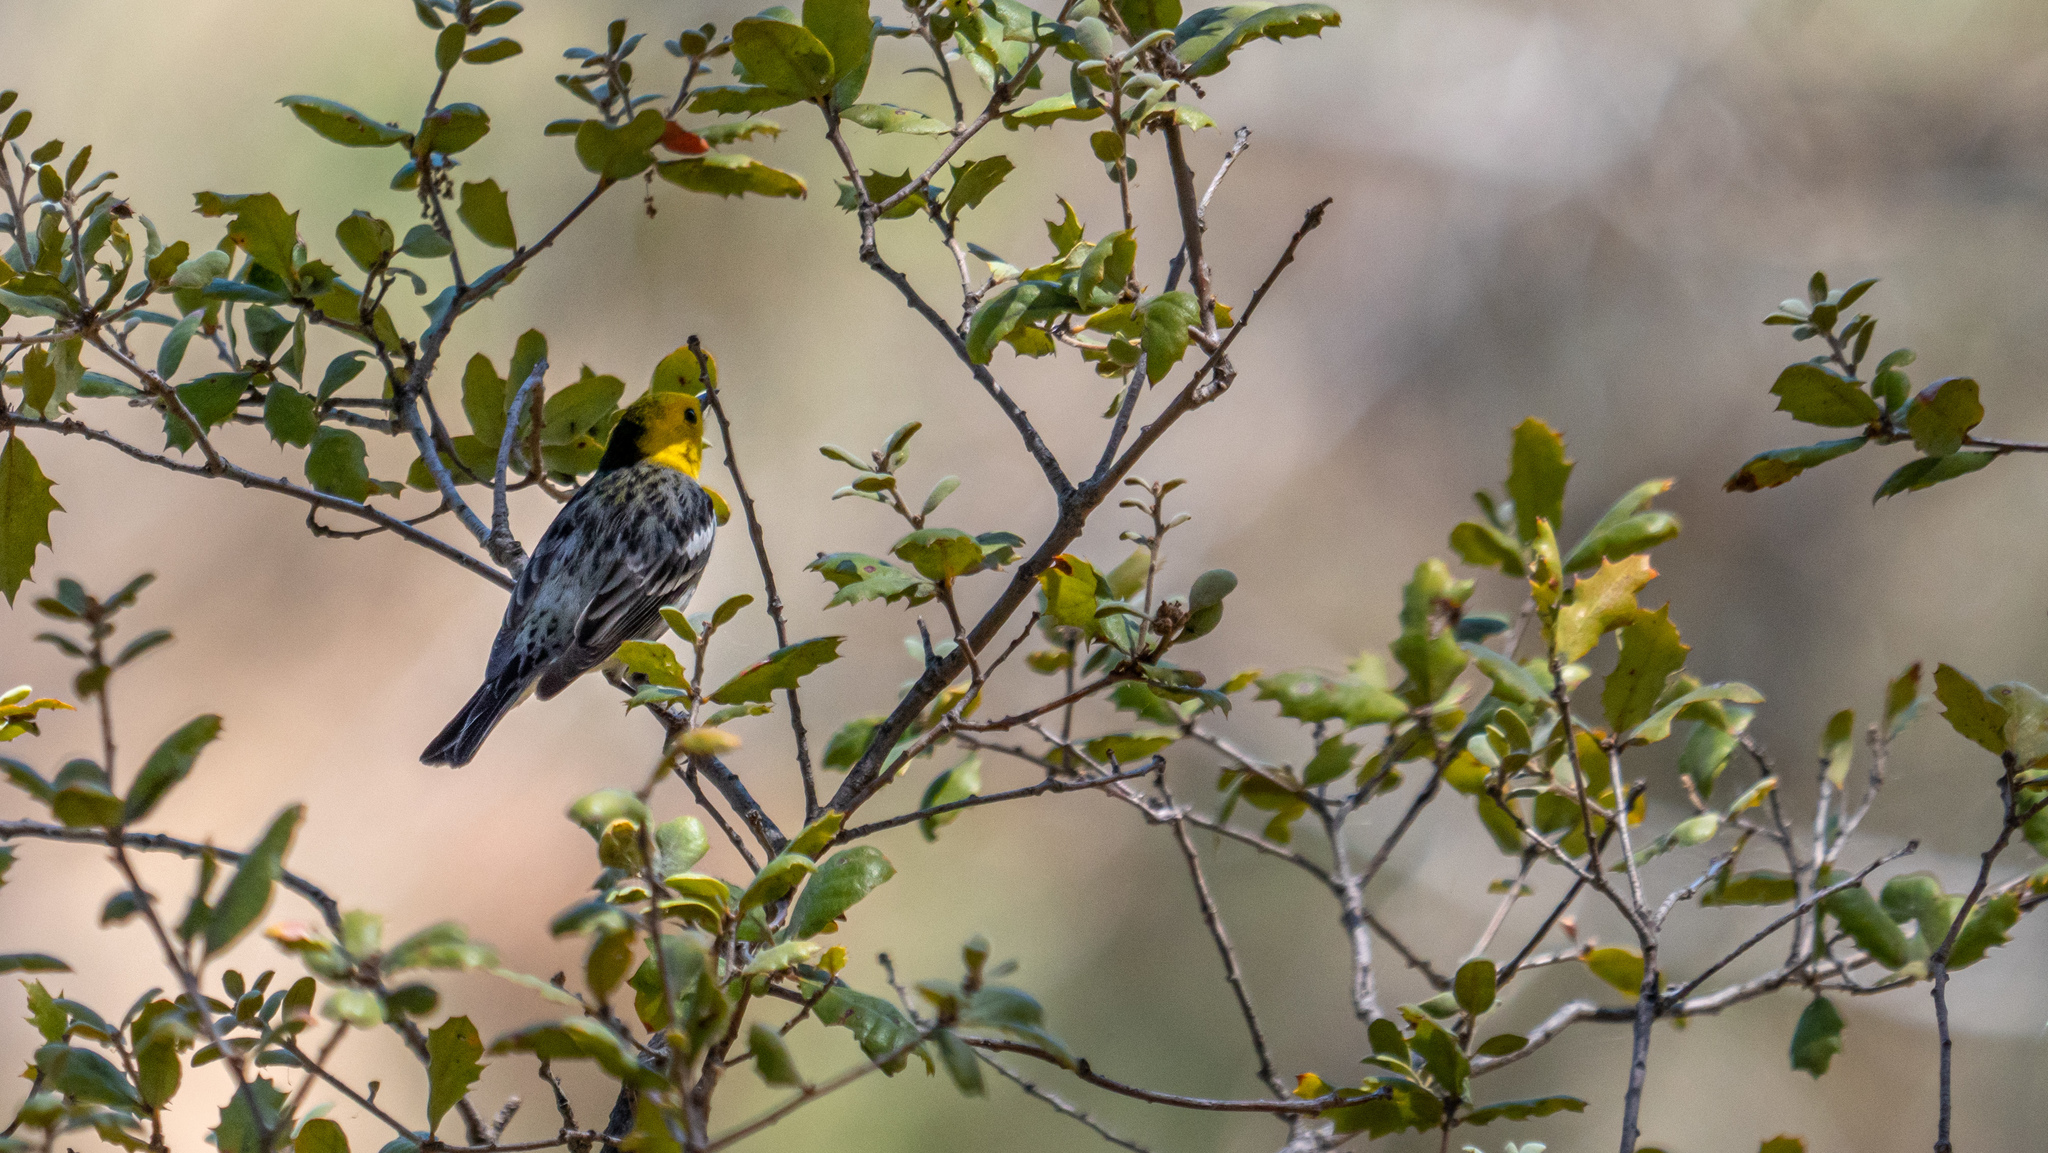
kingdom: Animalia
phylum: Chordata
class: Aves
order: Passeriformes
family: Parulidae
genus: Setophaga
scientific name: Setophaga occidentalis
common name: Hermit warbler
